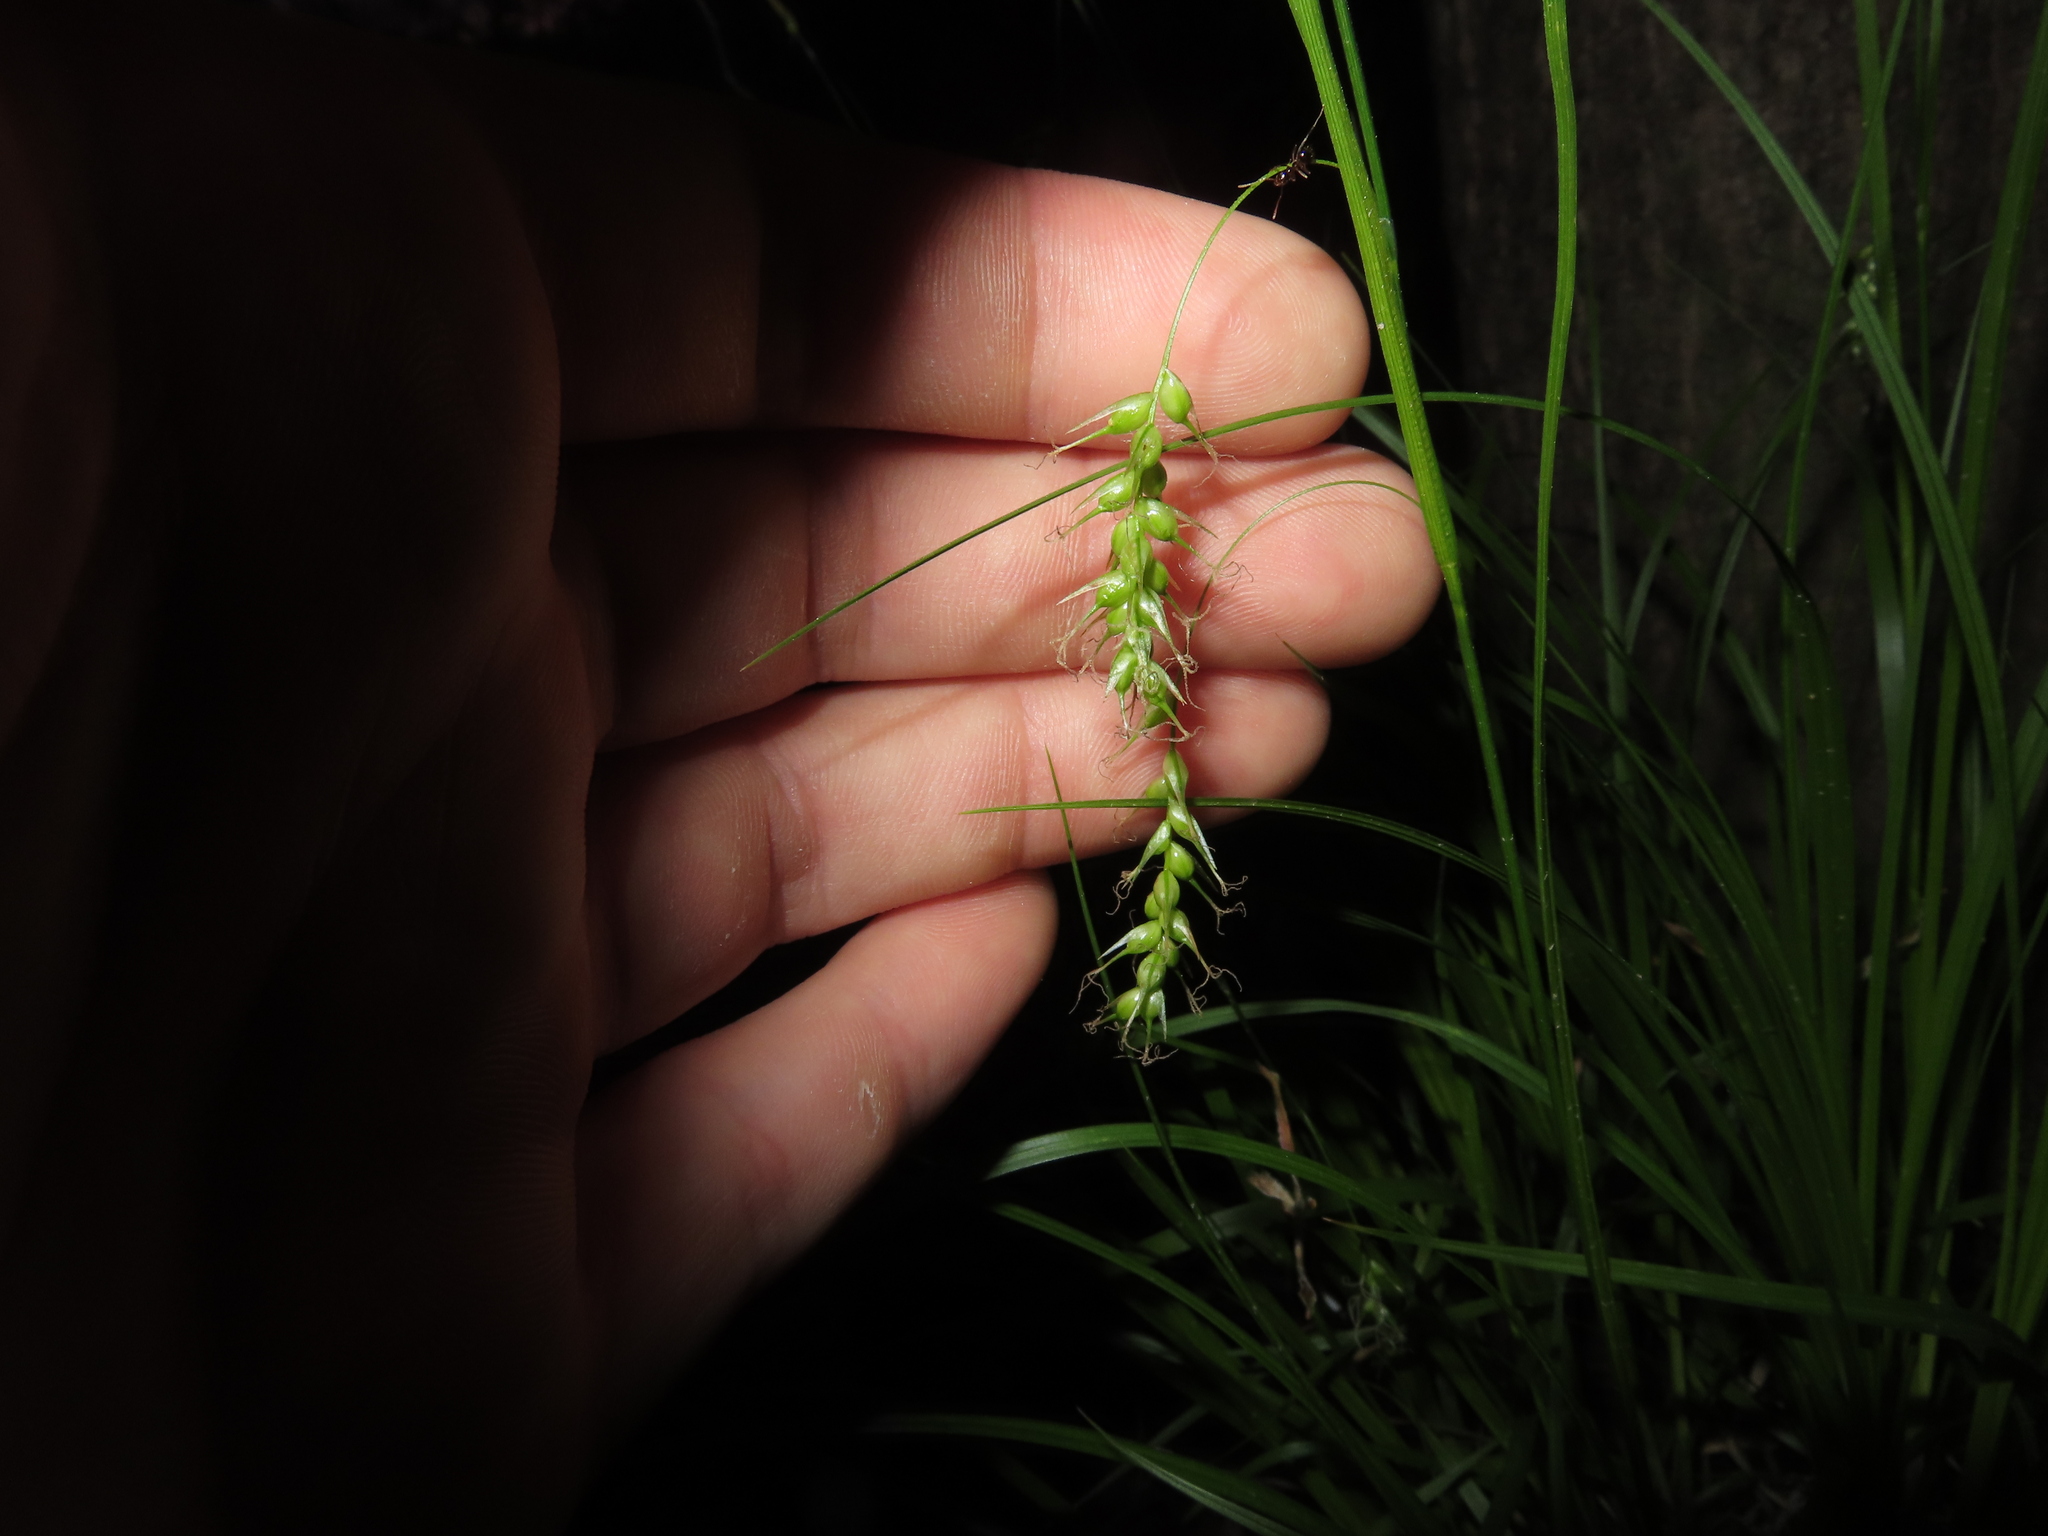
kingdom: Plantae
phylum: Tracheophyta
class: Liliopsida
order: Poales
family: Cyperaceae
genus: Carex
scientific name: Carex sprengelii
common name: Long-beaked sedge
